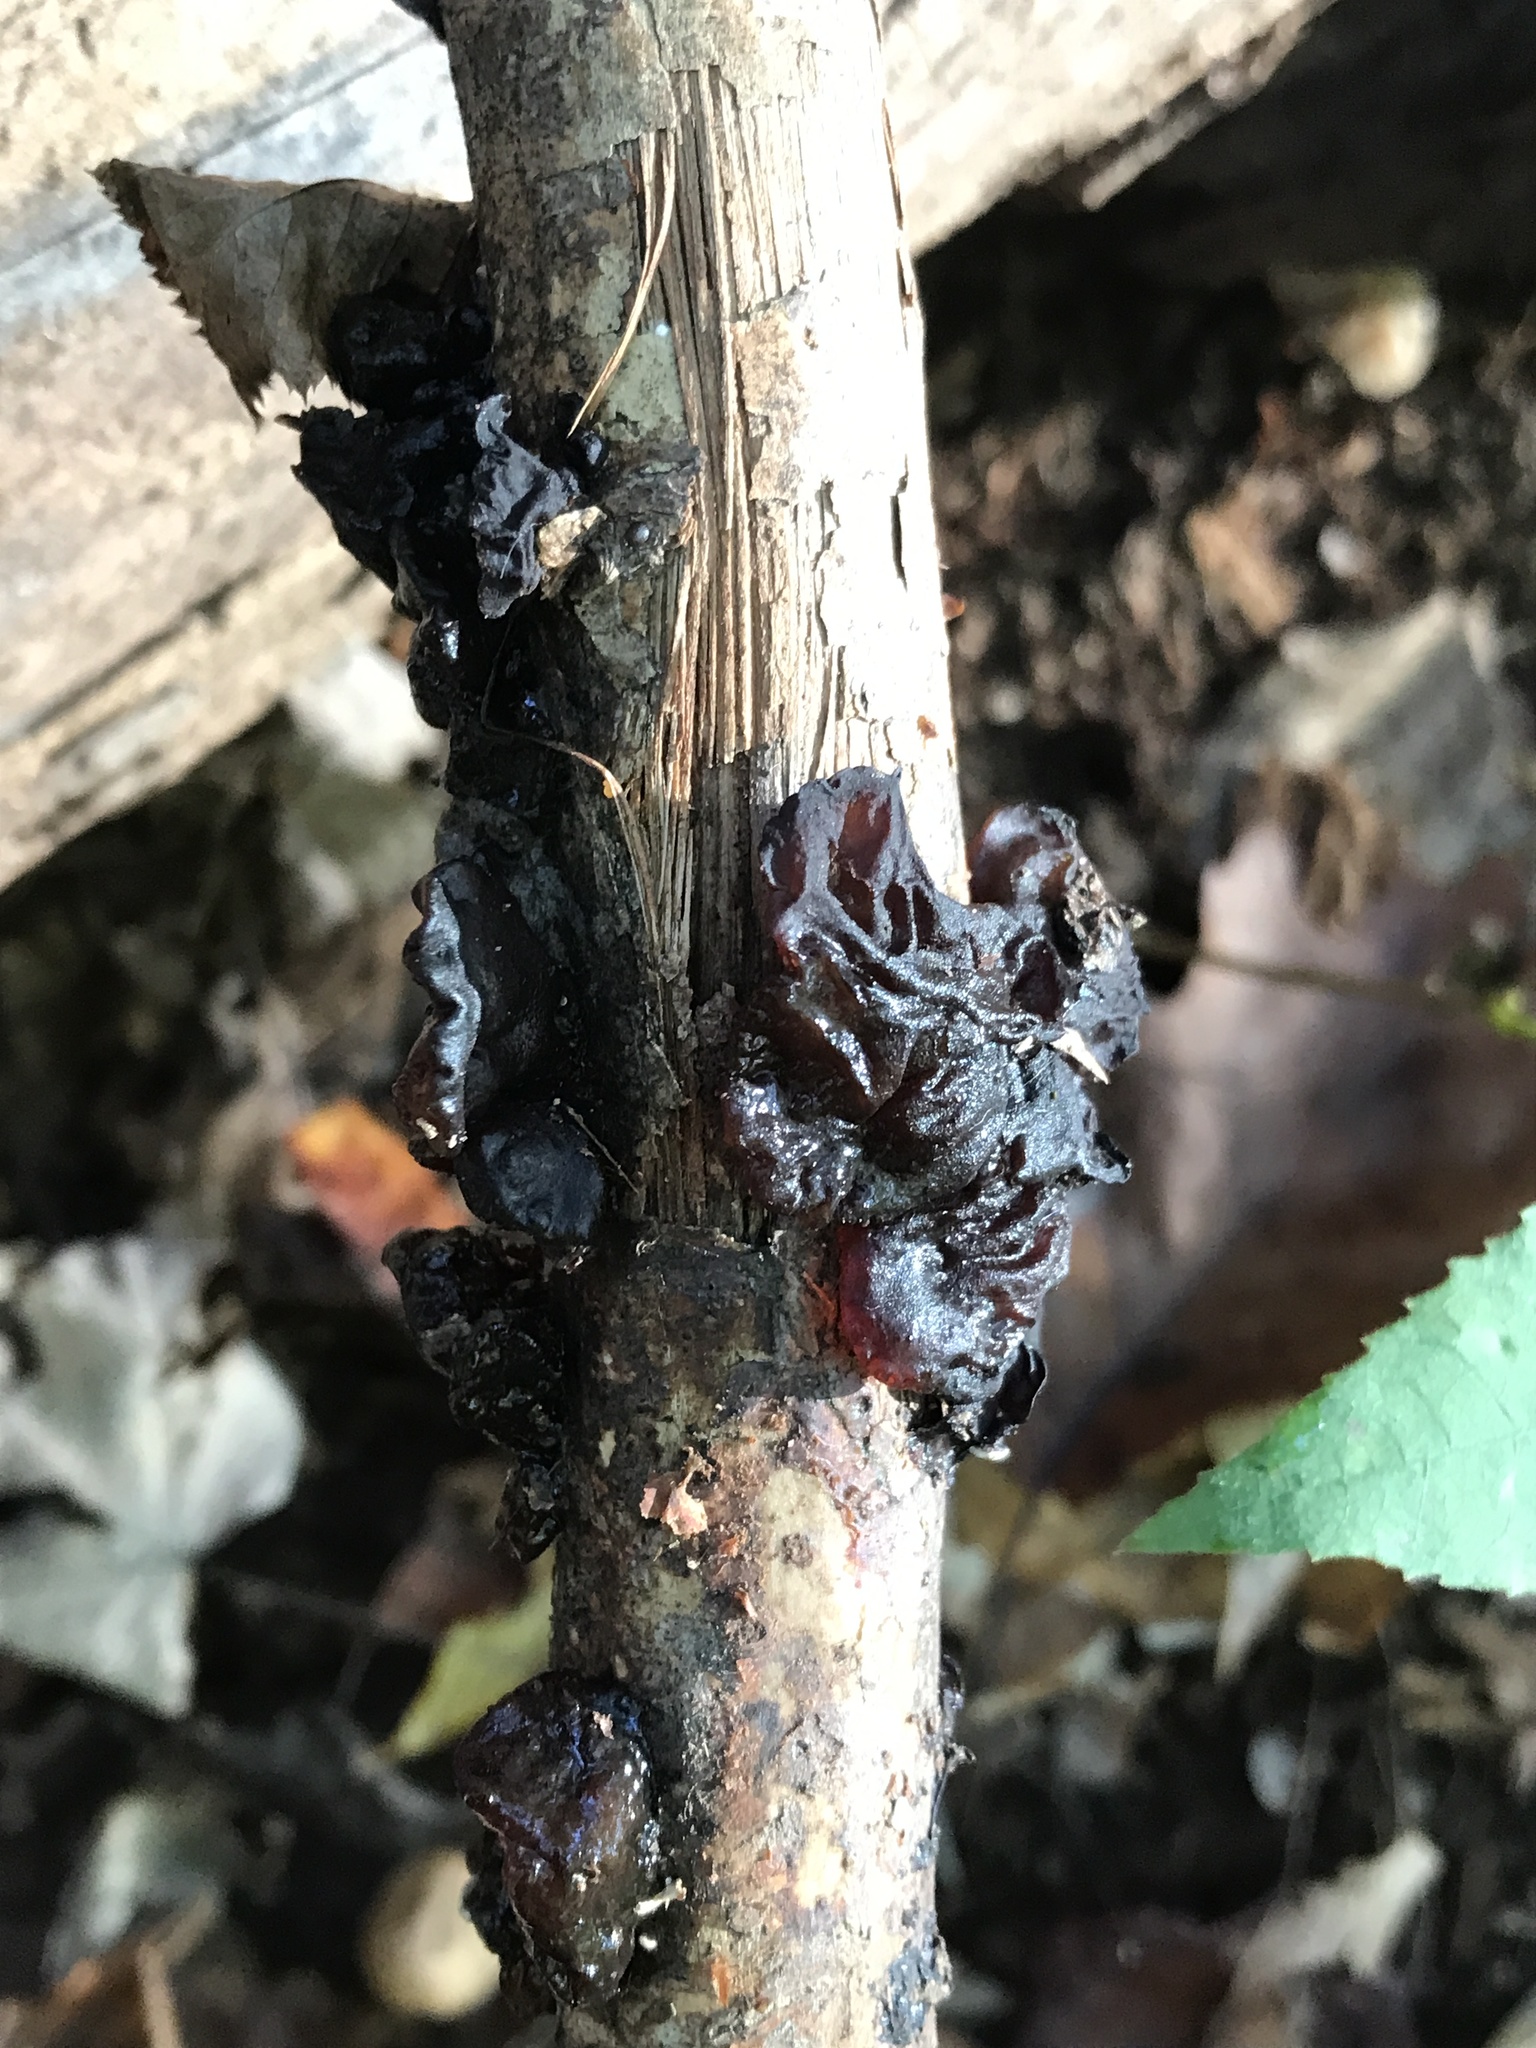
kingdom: Fungi
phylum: Basidiomycota
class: Agaricomycetes
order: Auriculariales
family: Auriculariaceae
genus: Exidia
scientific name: Exidia
